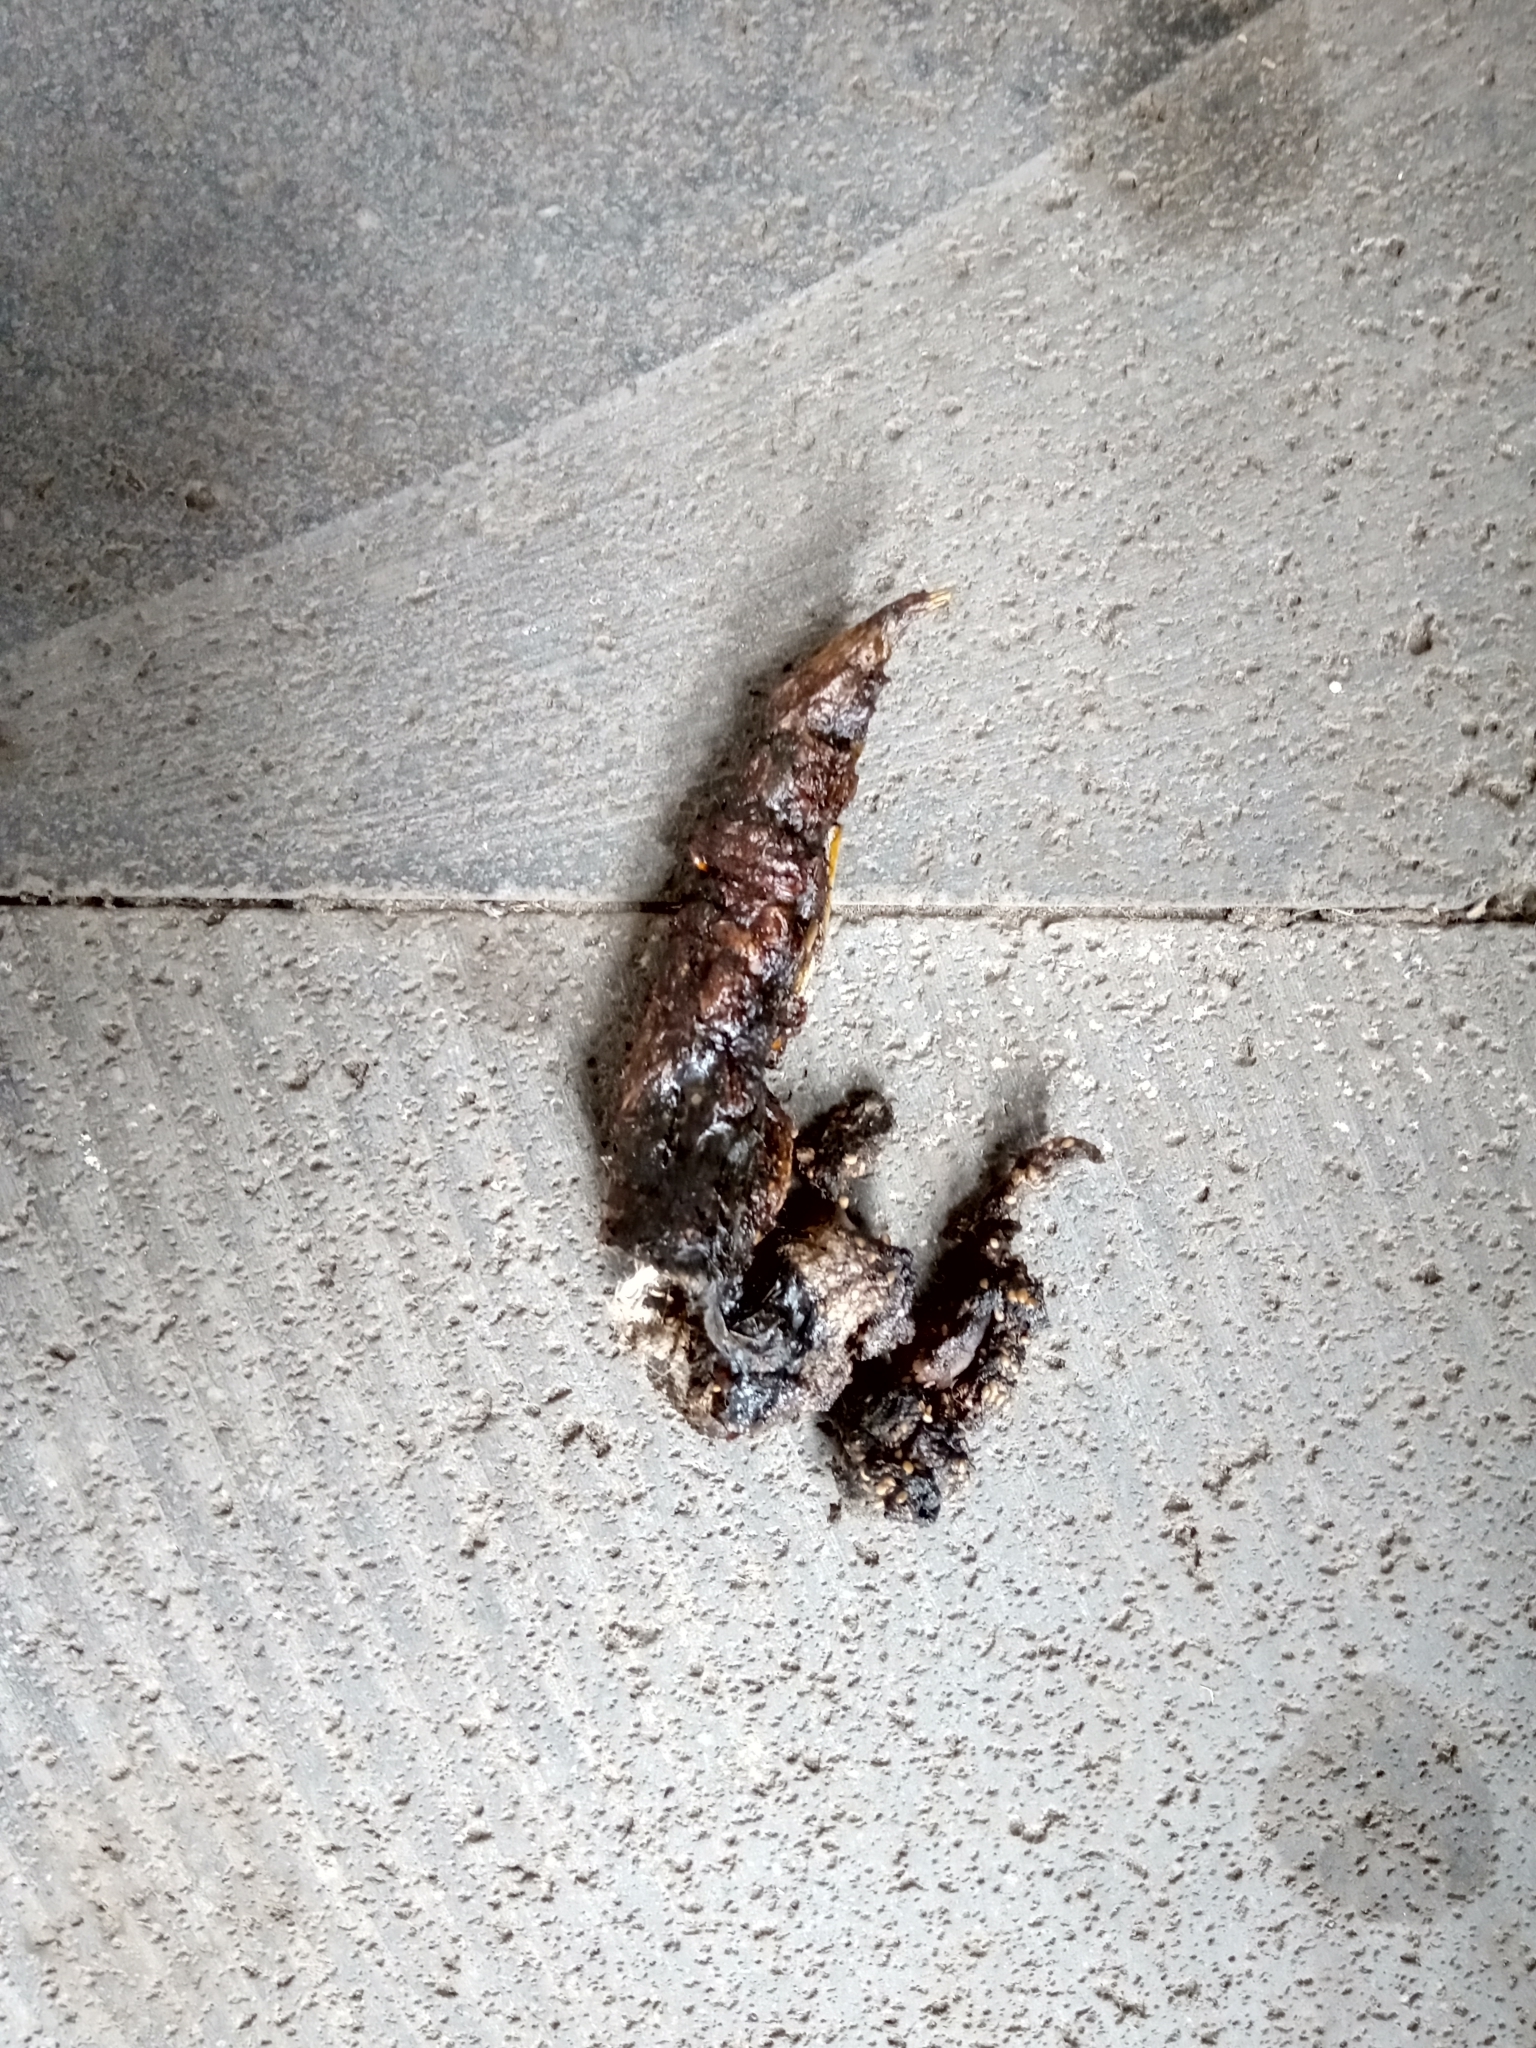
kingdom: Animalia
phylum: Chordata
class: Mammalia
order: Carnivora
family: Procyonidae
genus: Bassariscus
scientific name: Bassariscus astutus
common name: Ringtail
